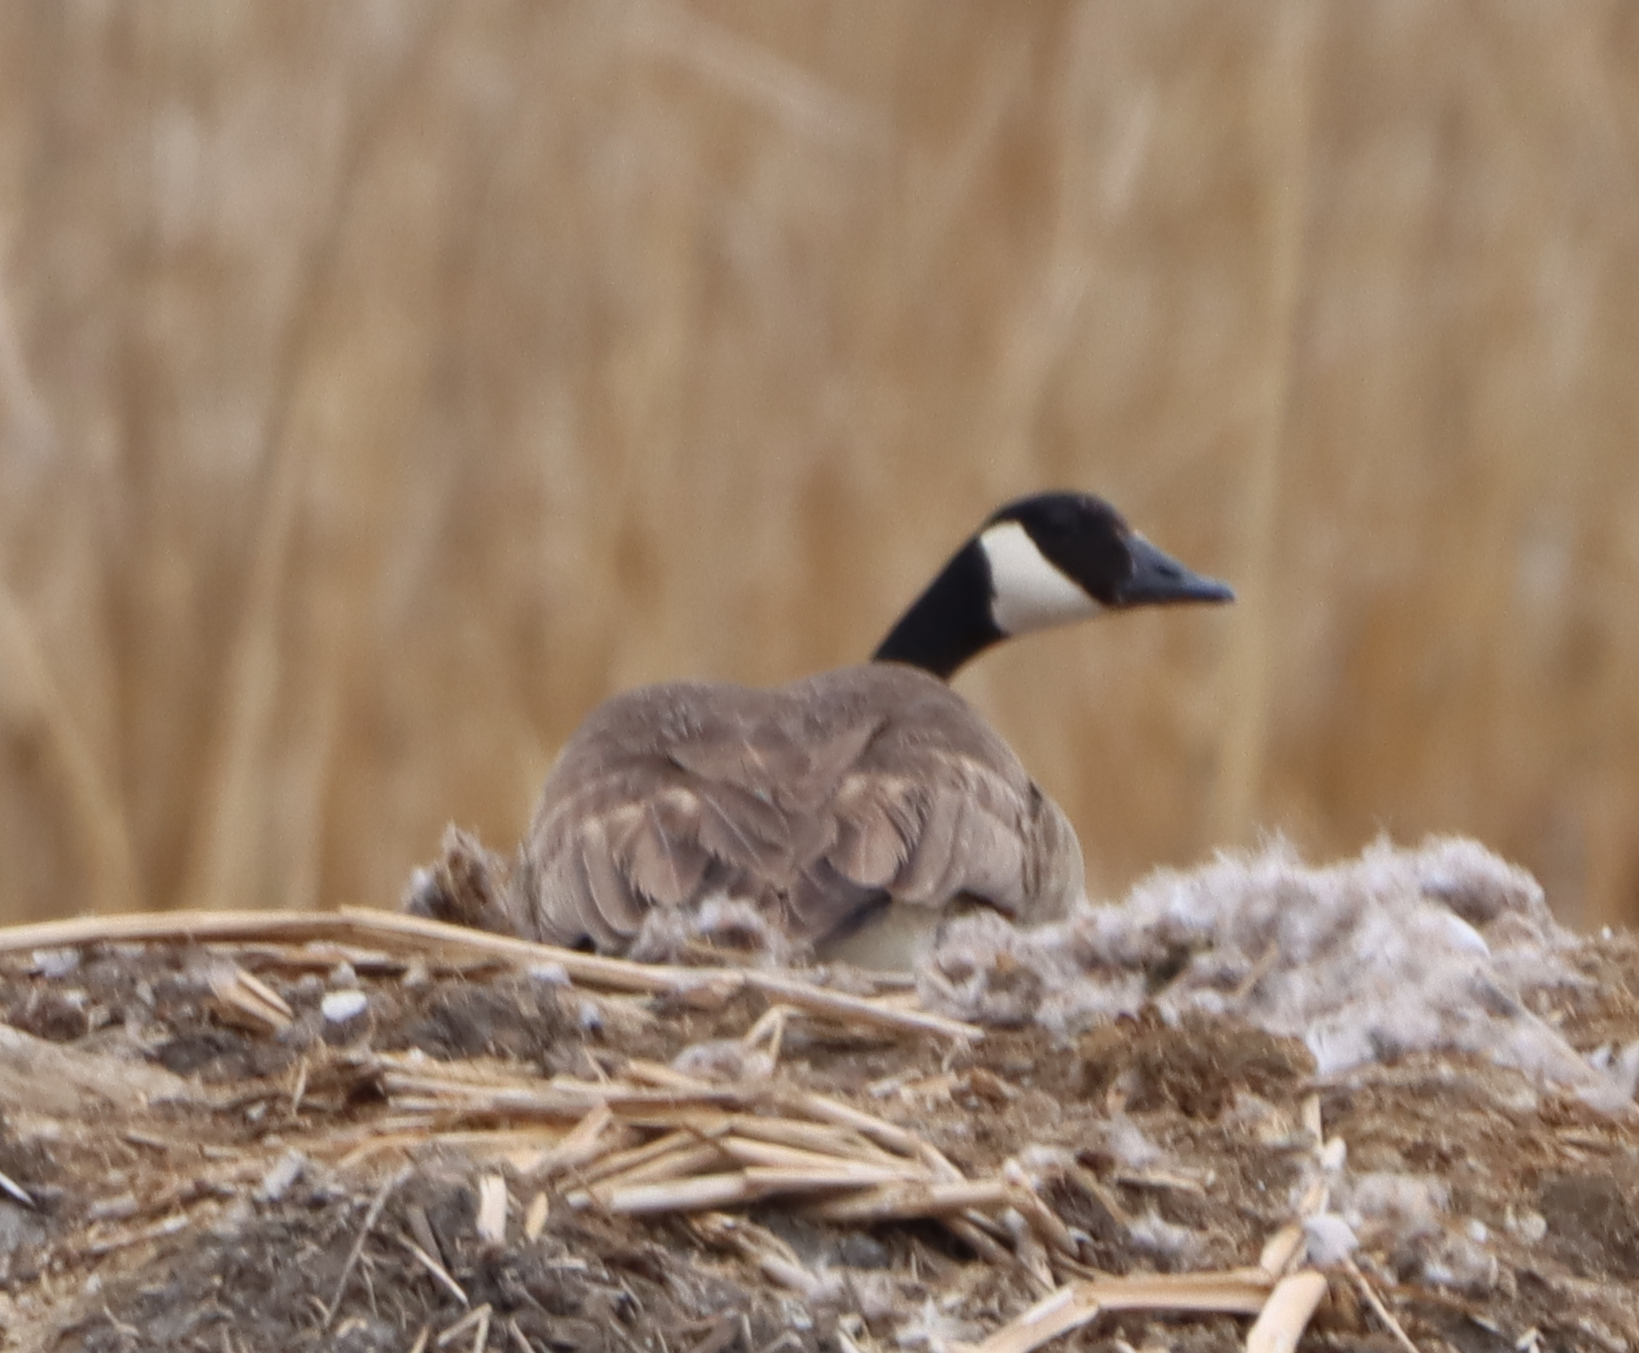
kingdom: Animalia
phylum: Chordata
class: Aves
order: Anseriformes
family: Anatidae
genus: Branta
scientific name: Branta canadensis
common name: Canada goose
